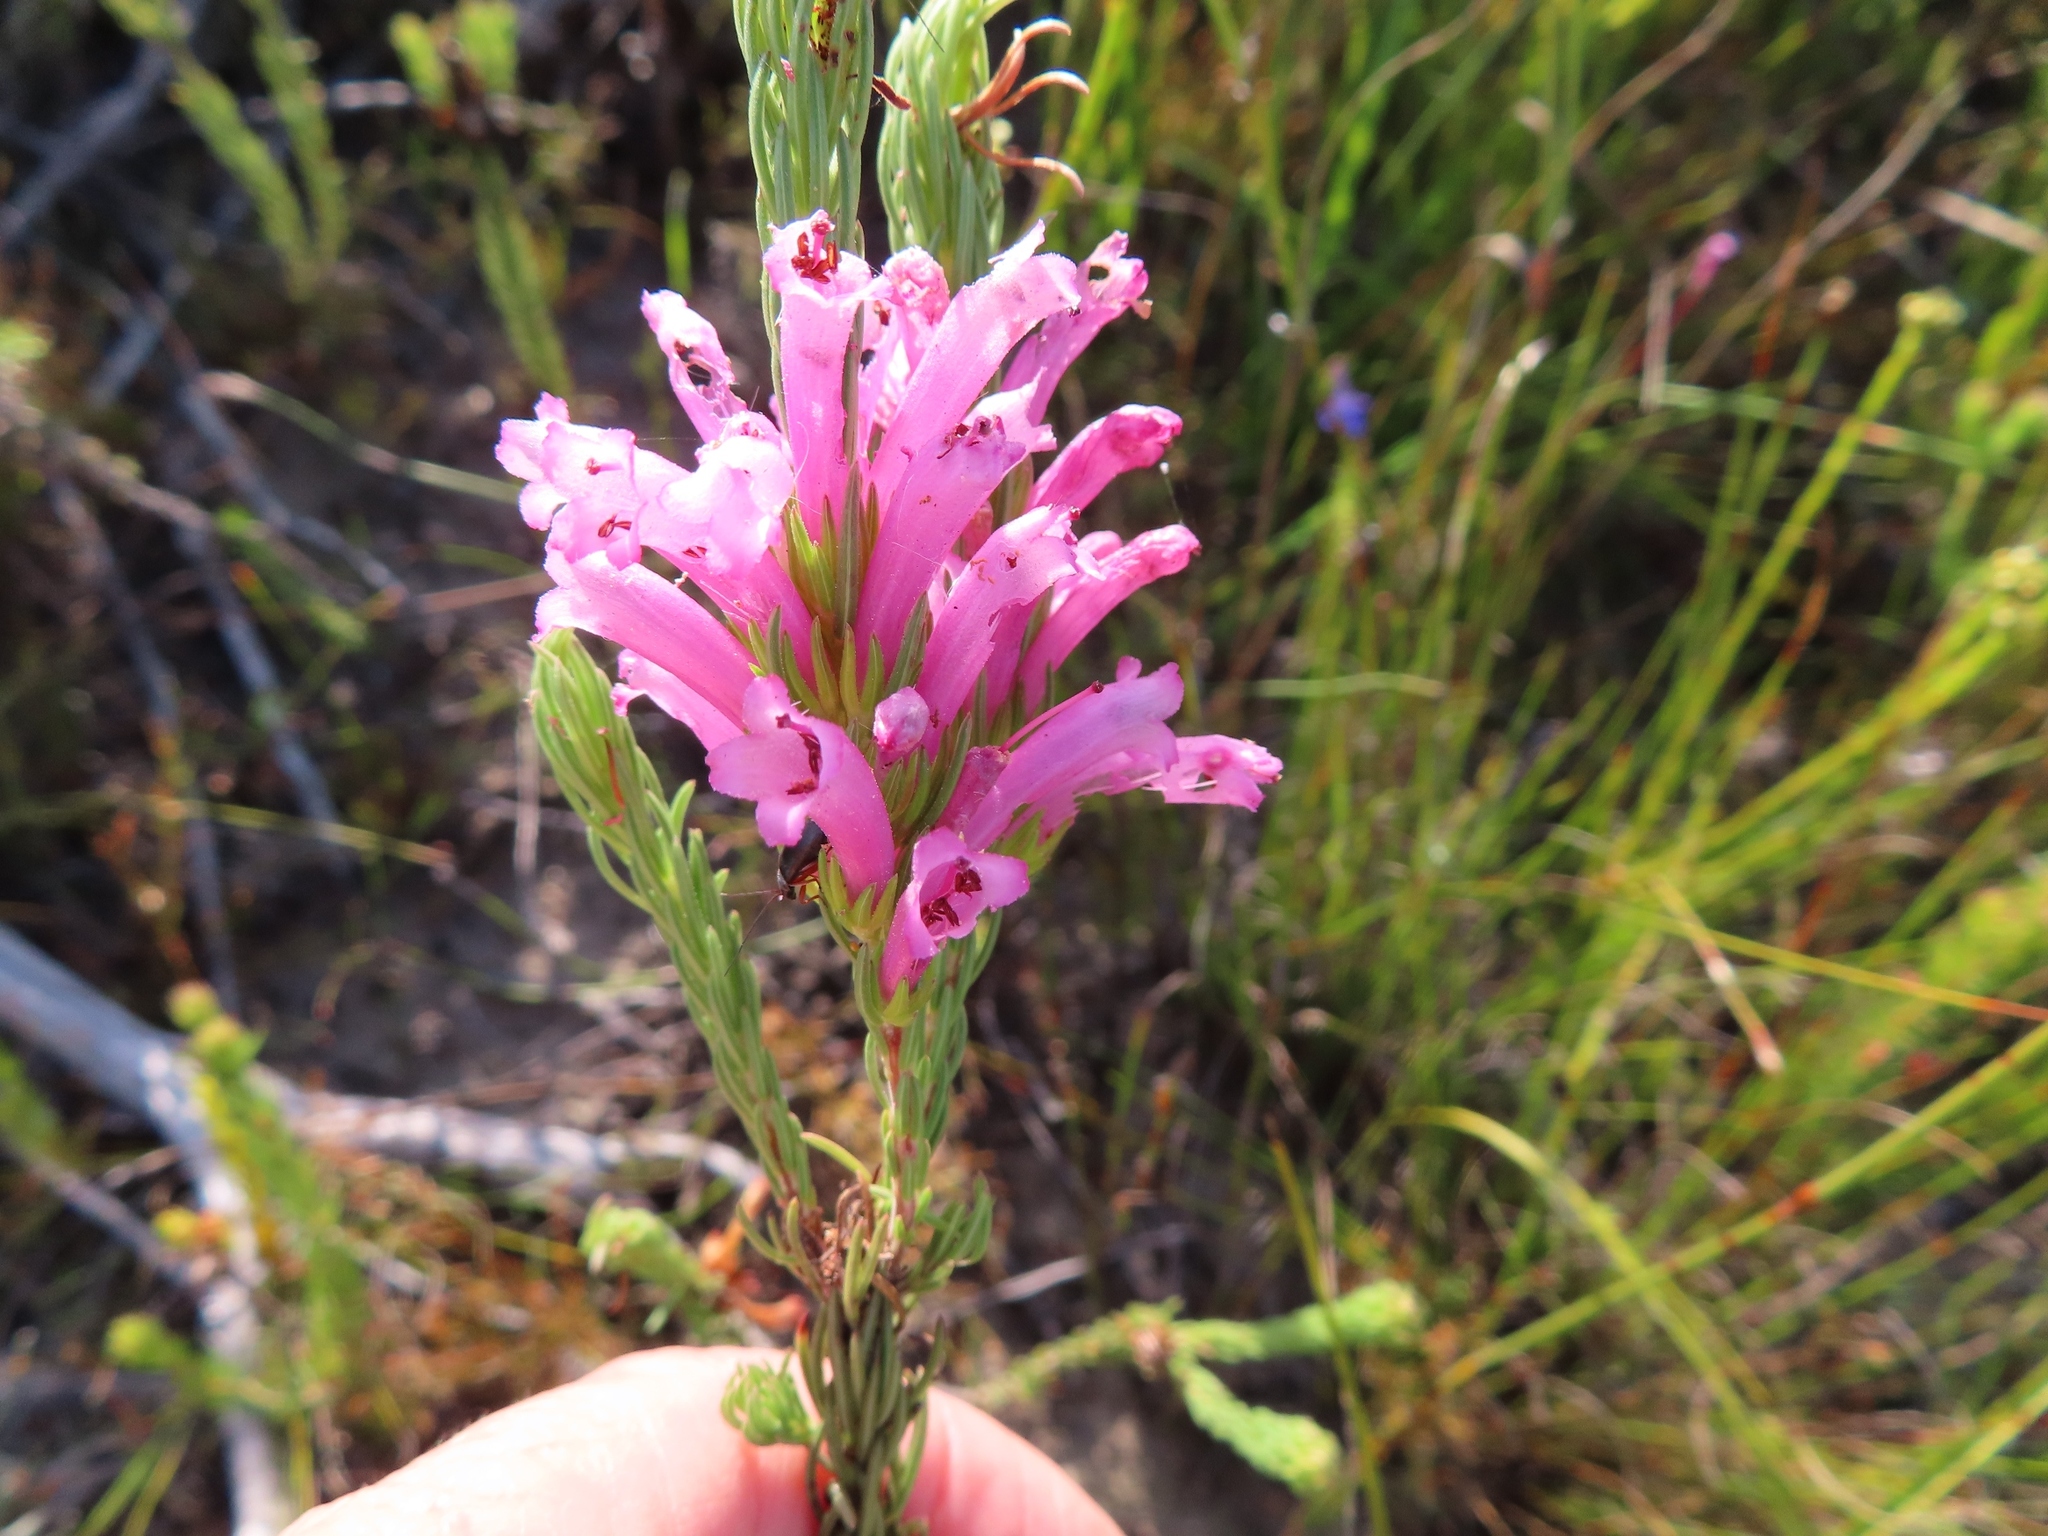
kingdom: Plantae
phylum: Tracheophyta
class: Magnoliopsida
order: Ericales
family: Ericaceae
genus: Erica
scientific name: Erica viscaria
